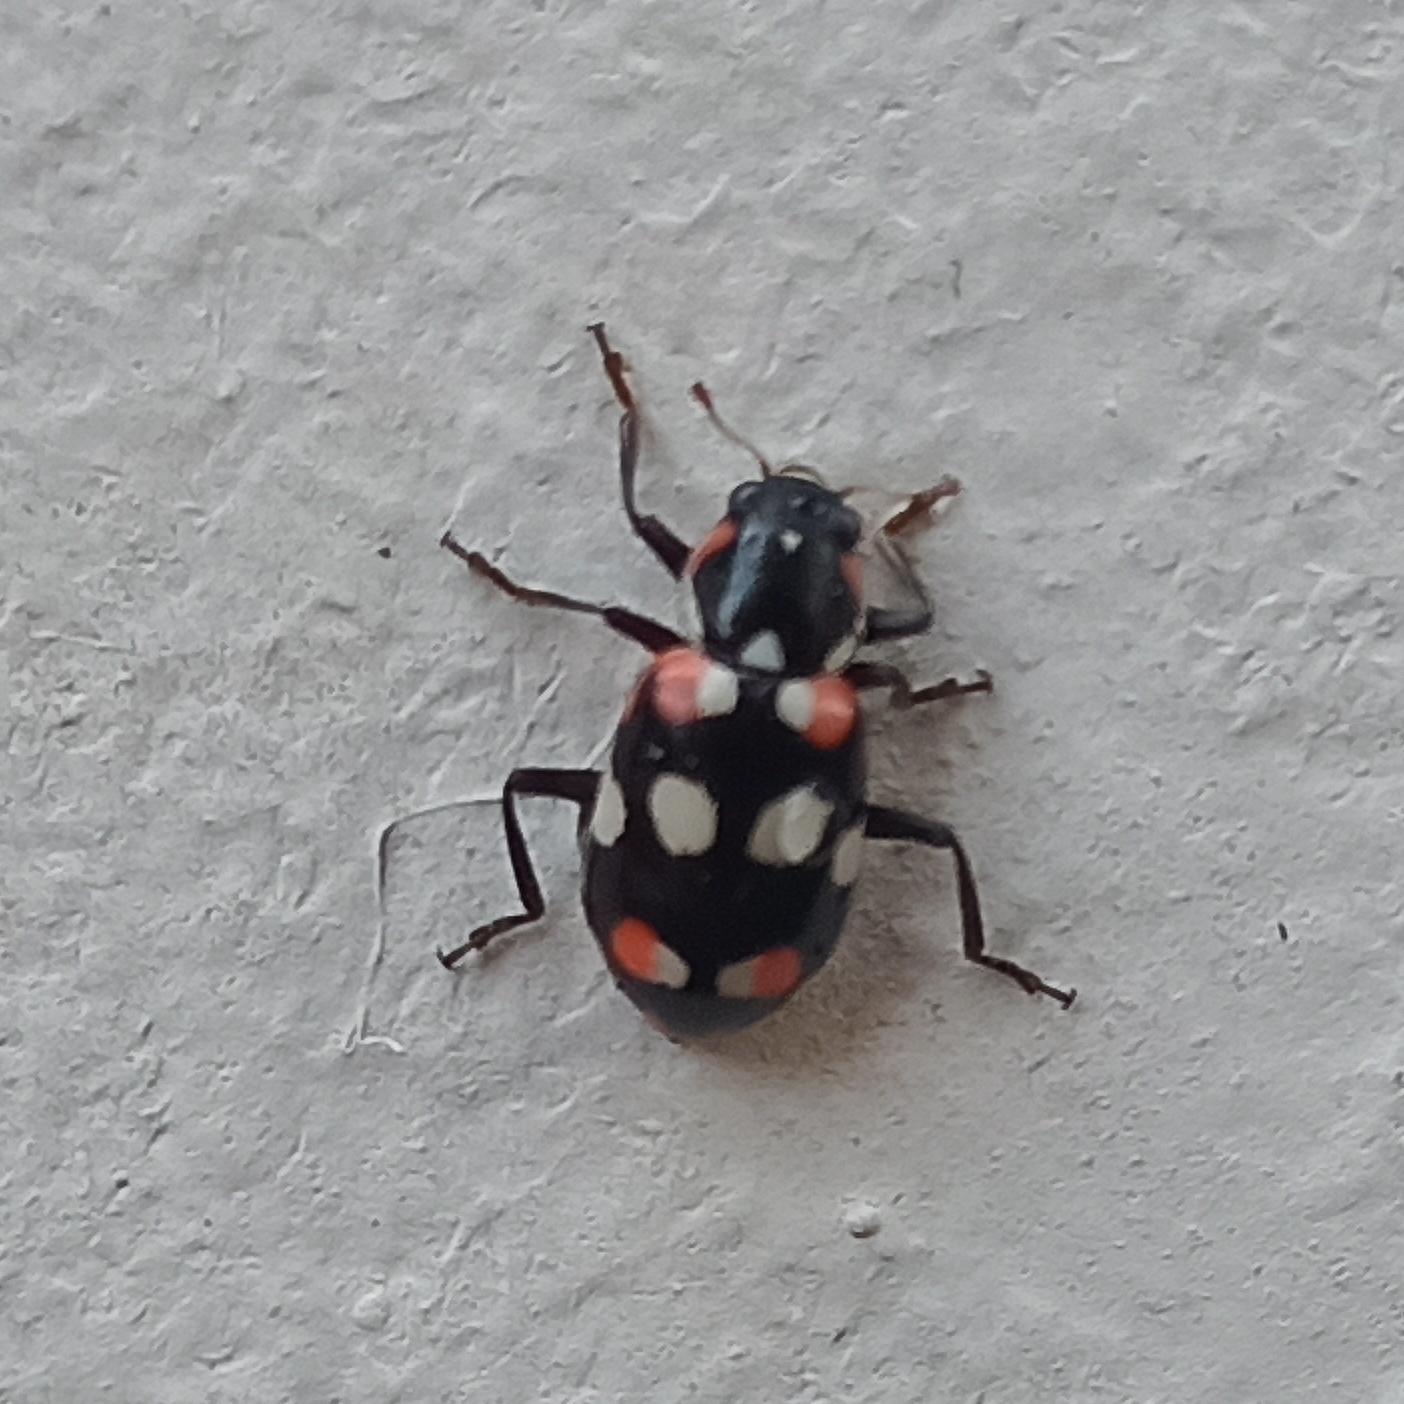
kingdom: Animalia
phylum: Arthropoda
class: Insecta
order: Coleoptera
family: Coccinellidae
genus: Eriopis
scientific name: Eriopis connexa
